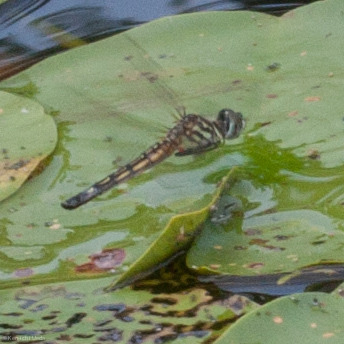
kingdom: Animalia
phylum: Arthropoda
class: Insecta
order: Odonata
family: Libellulidae
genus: Pachydiplax
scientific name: Pachydiplax longipennis
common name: Blue dasher
